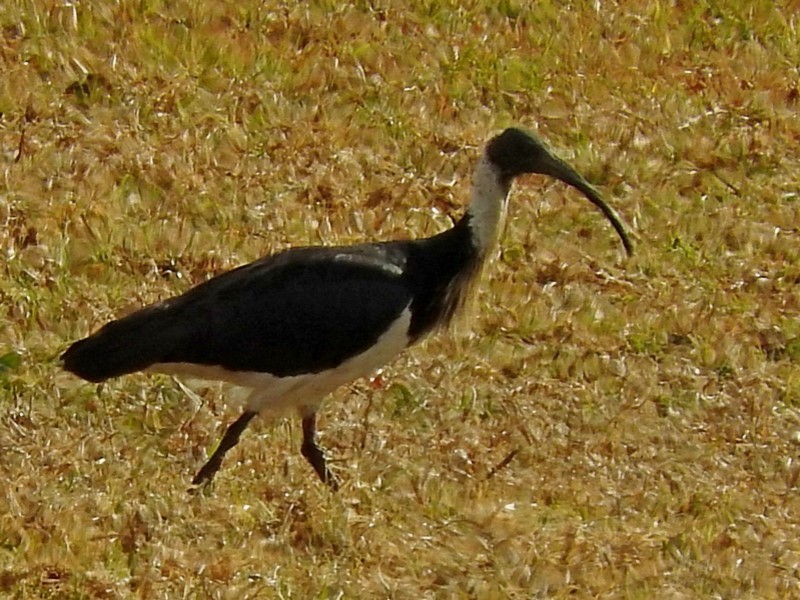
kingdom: Animalia
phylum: Chordata
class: Aves
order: Pelecaniformes
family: Threskiornithidae
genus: Threskiornis
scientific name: Threskiornis spinicollis
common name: Straw-necked ibis
